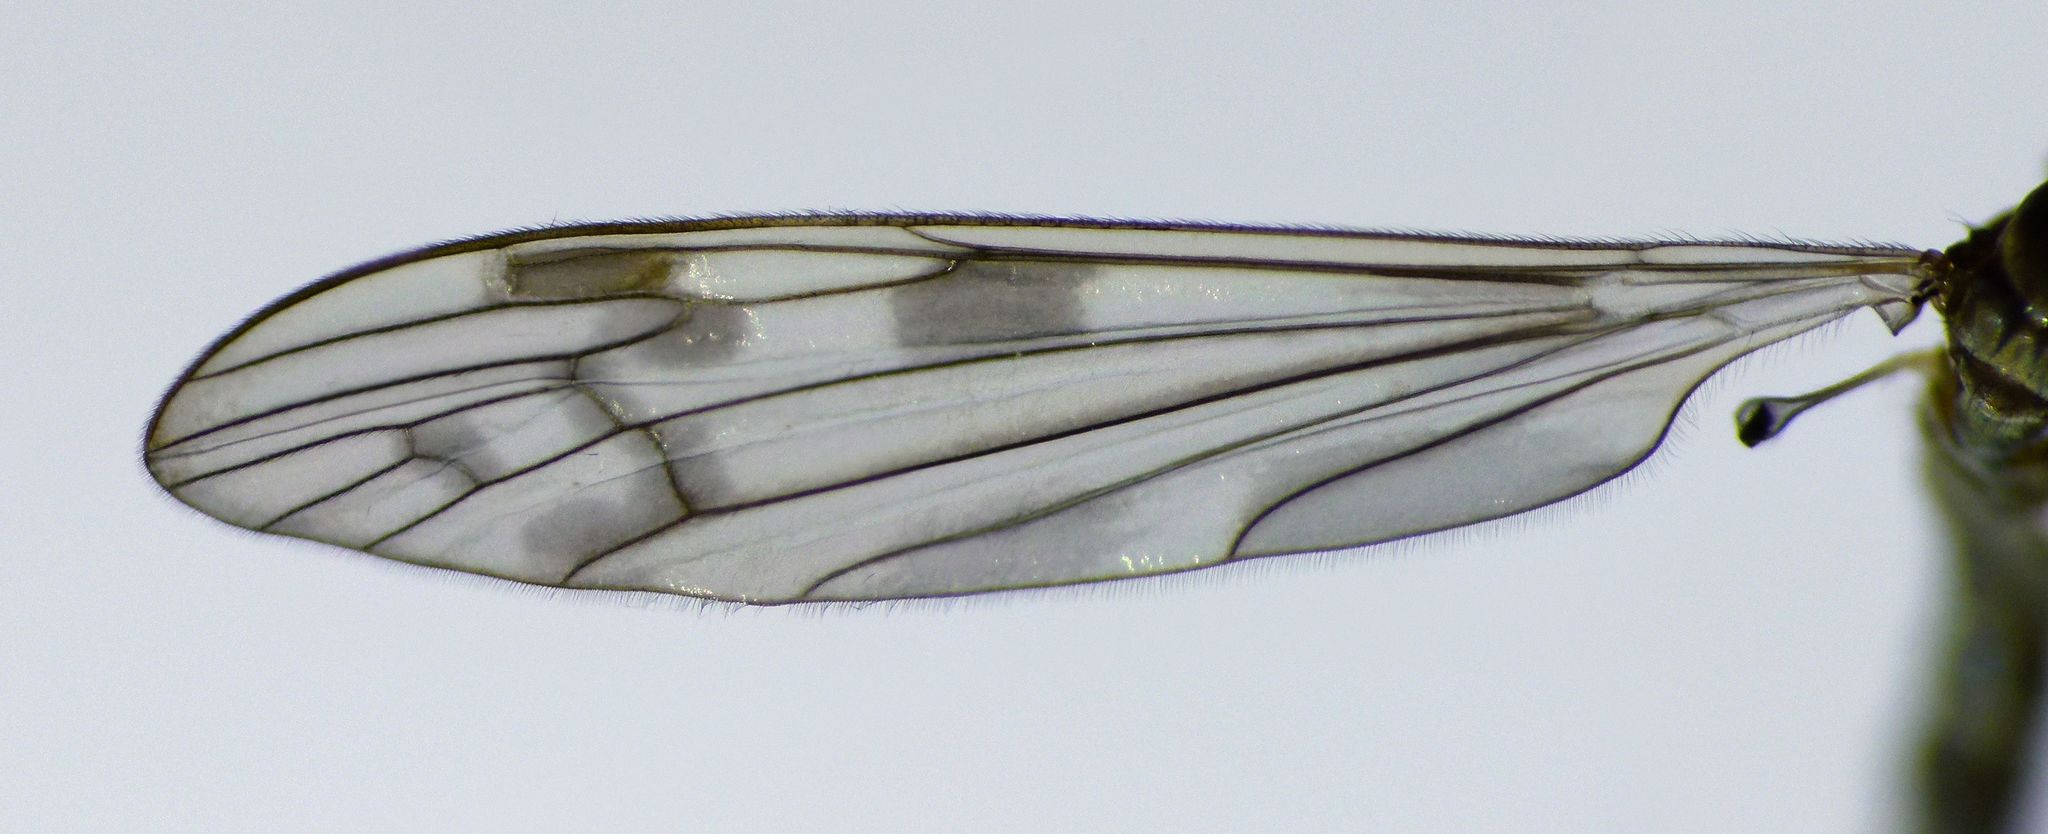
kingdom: Animalia
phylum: Arthropoda
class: Insecta
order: Diptera
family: Limoniidae
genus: Dicranomyia
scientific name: Dicranomyia fasciata
